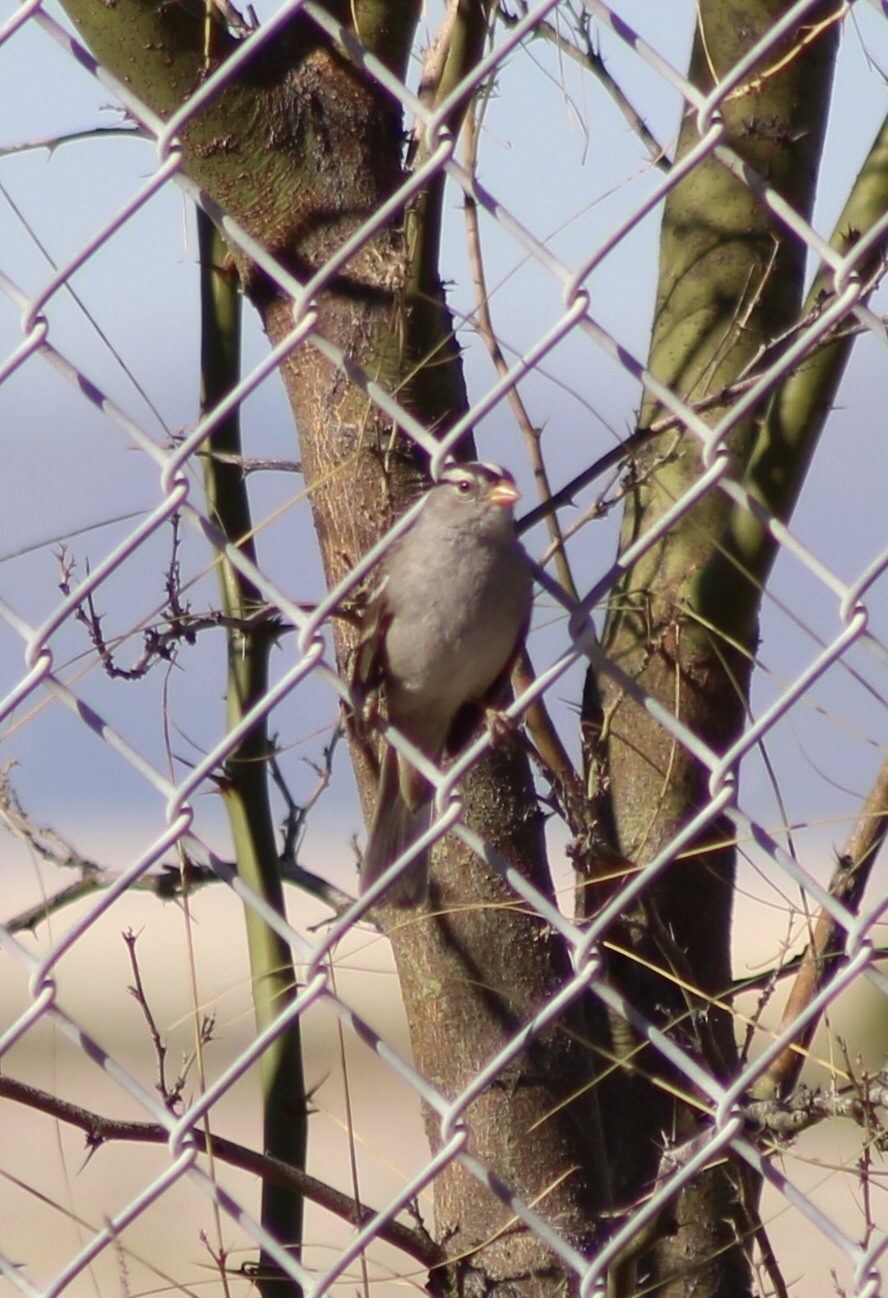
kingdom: Animalia
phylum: Chordata
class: Aves
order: Passeriformes
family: Passerellidae
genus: Zonotrichia
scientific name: Zonotrichia leucophrys
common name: White-crowned sparrow
